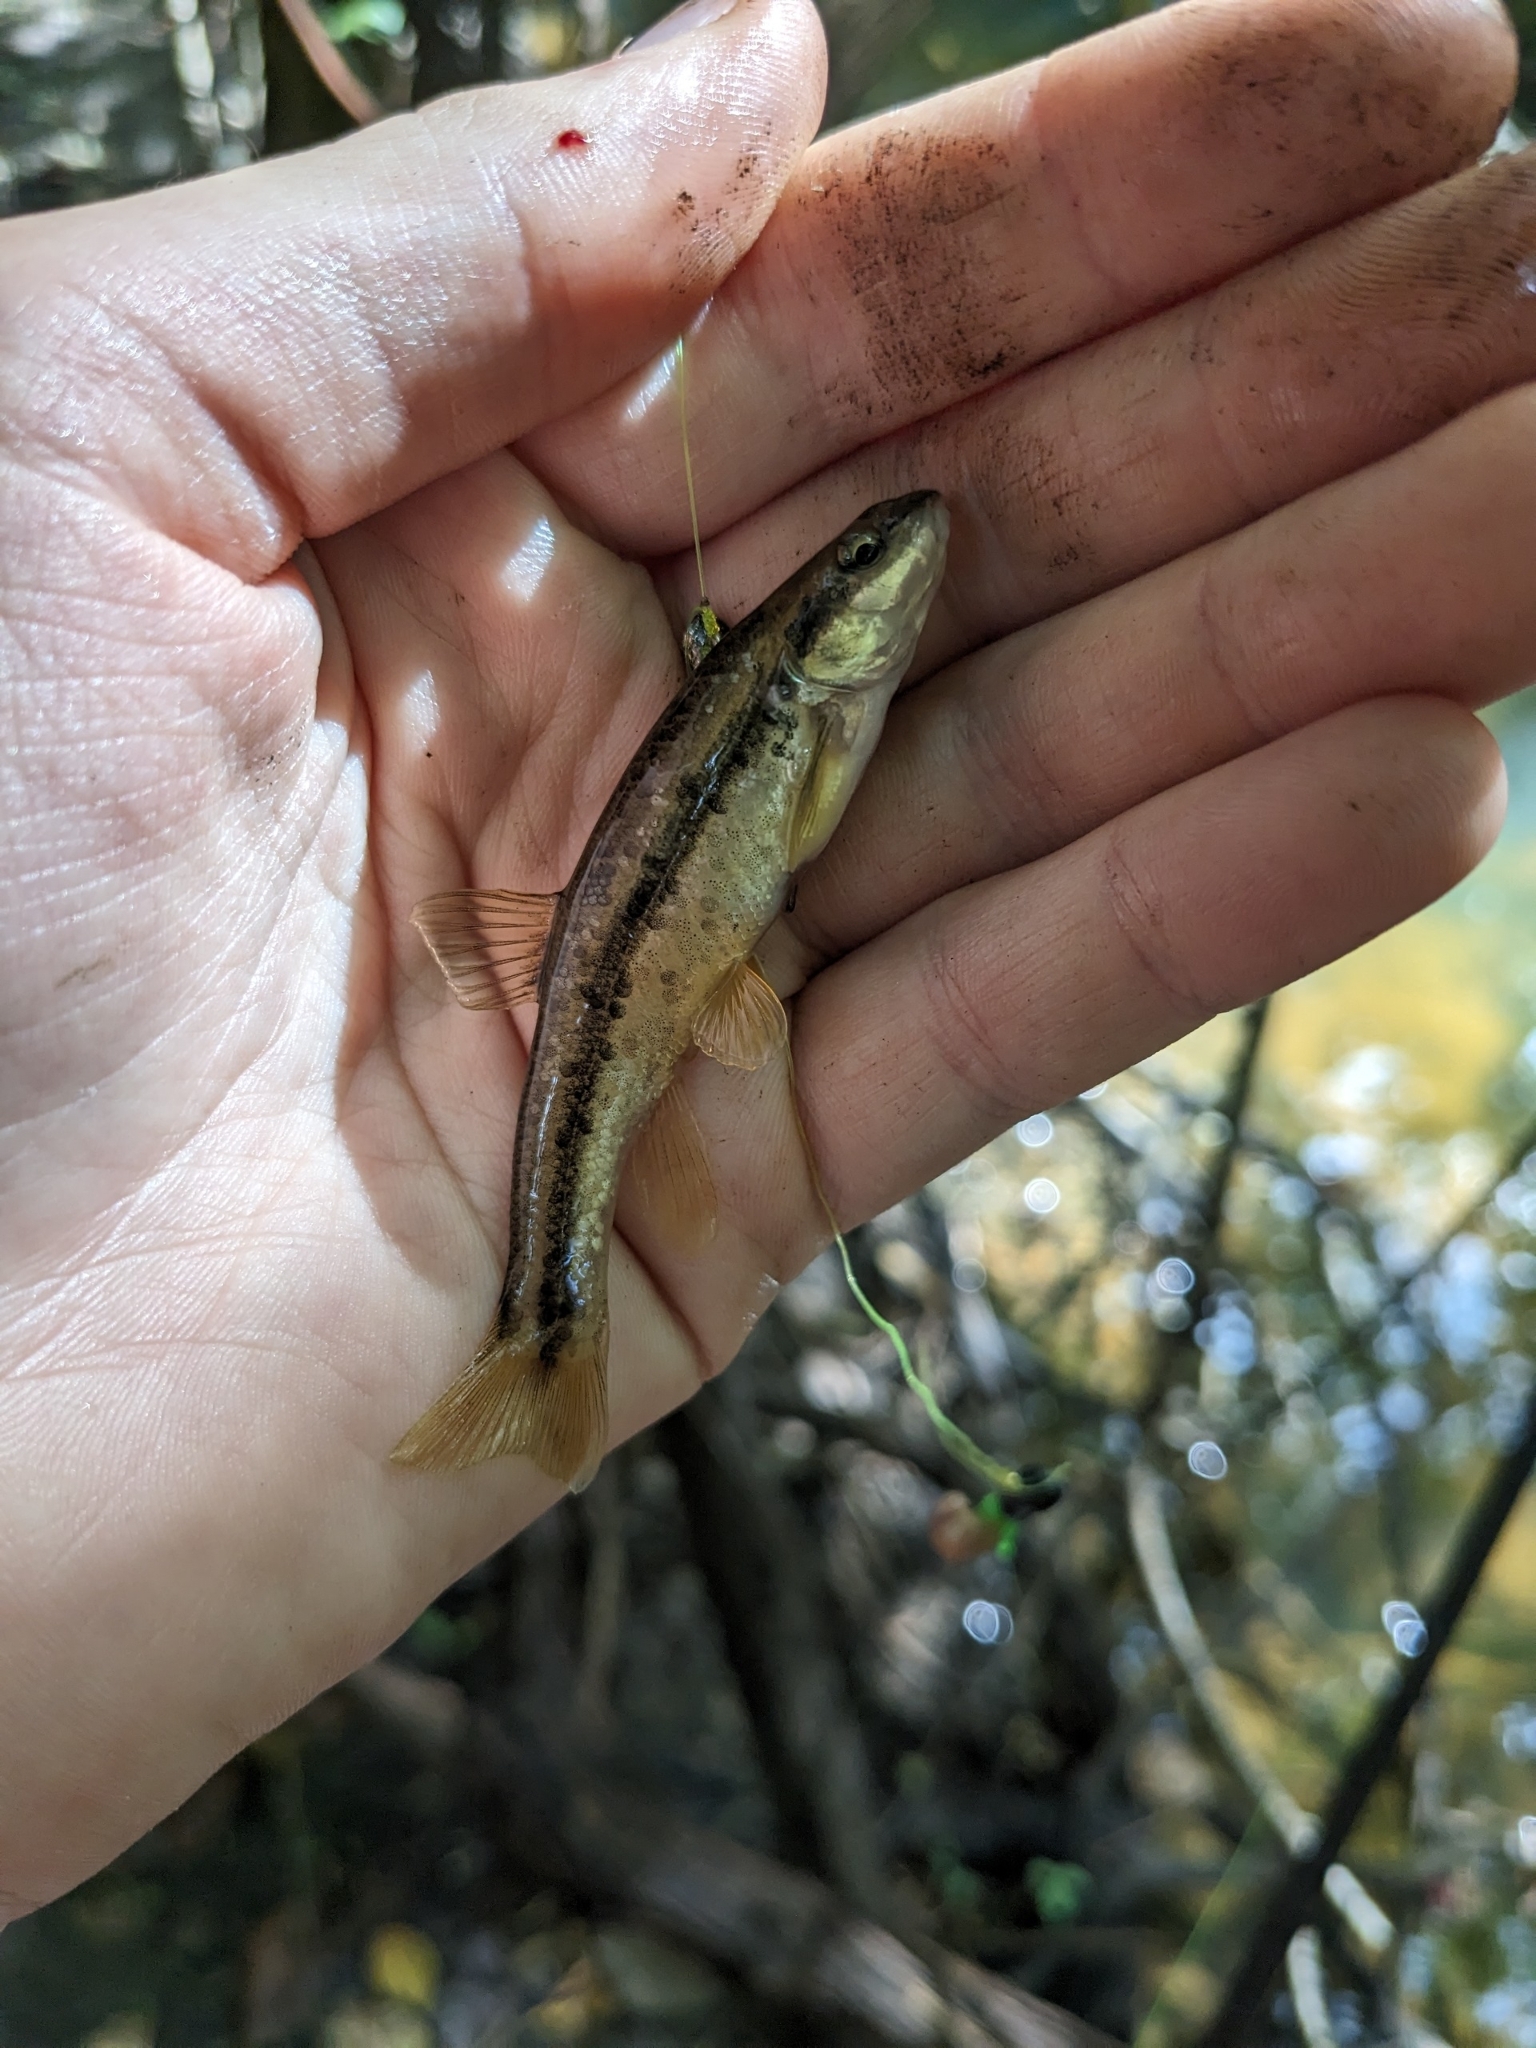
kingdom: Animalia
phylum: Chordata
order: Cypriniformes
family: Cyprinidae
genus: Rhinichthys
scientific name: Rhinichthys obtusus
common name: Western blacknose dace
